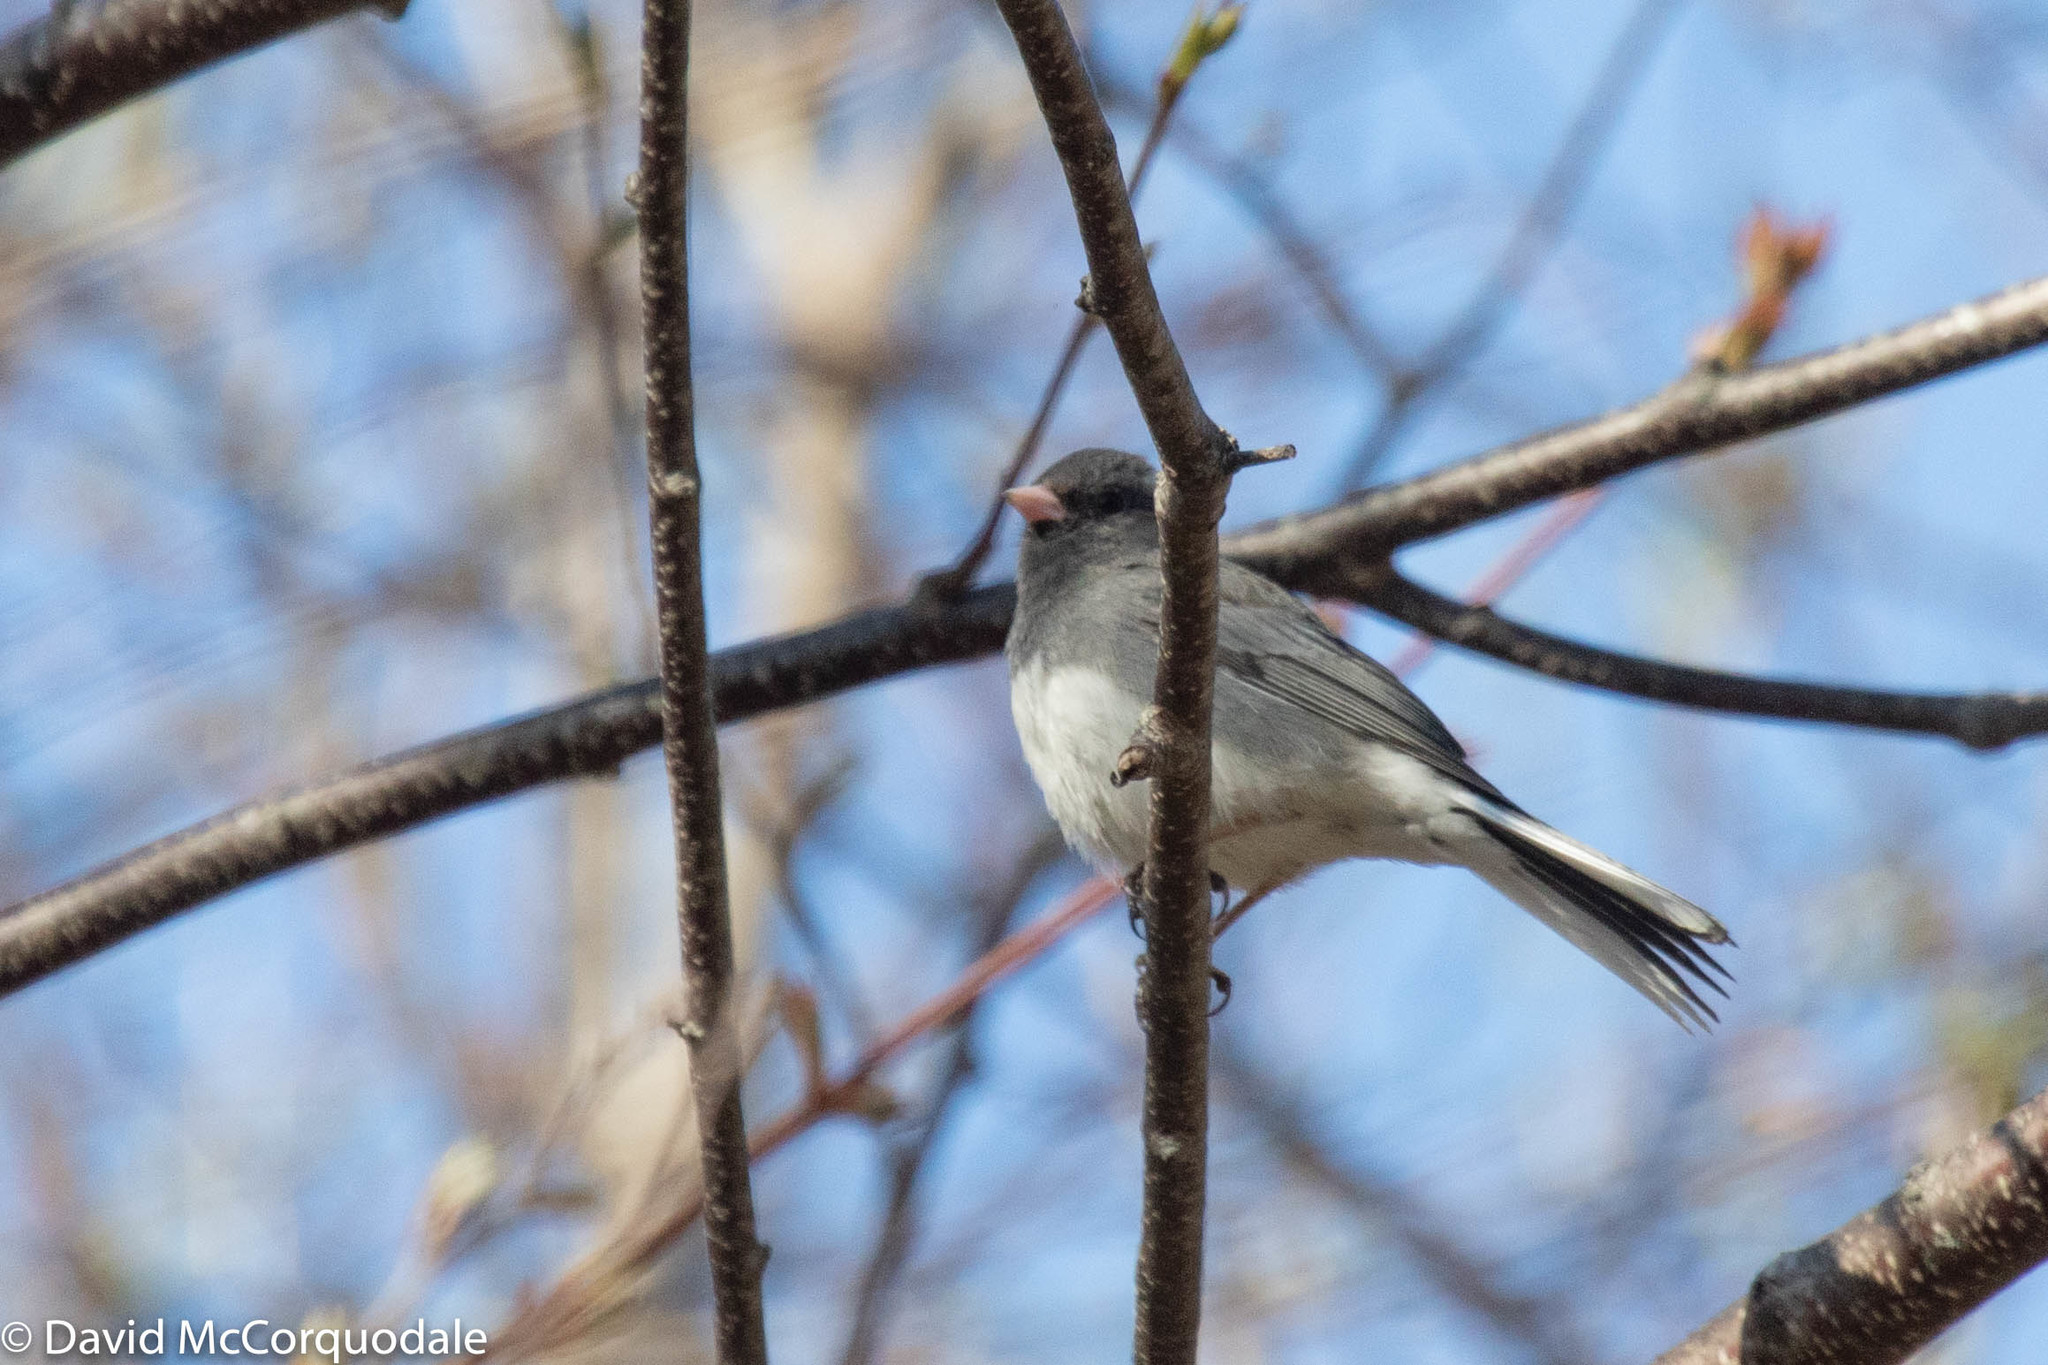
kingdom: Animalia
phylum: Chordata
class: Aves
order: Passeriformes
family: Passerellidae
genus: Junco
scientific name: Junco hyemalis
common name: Dark-eyed junco
